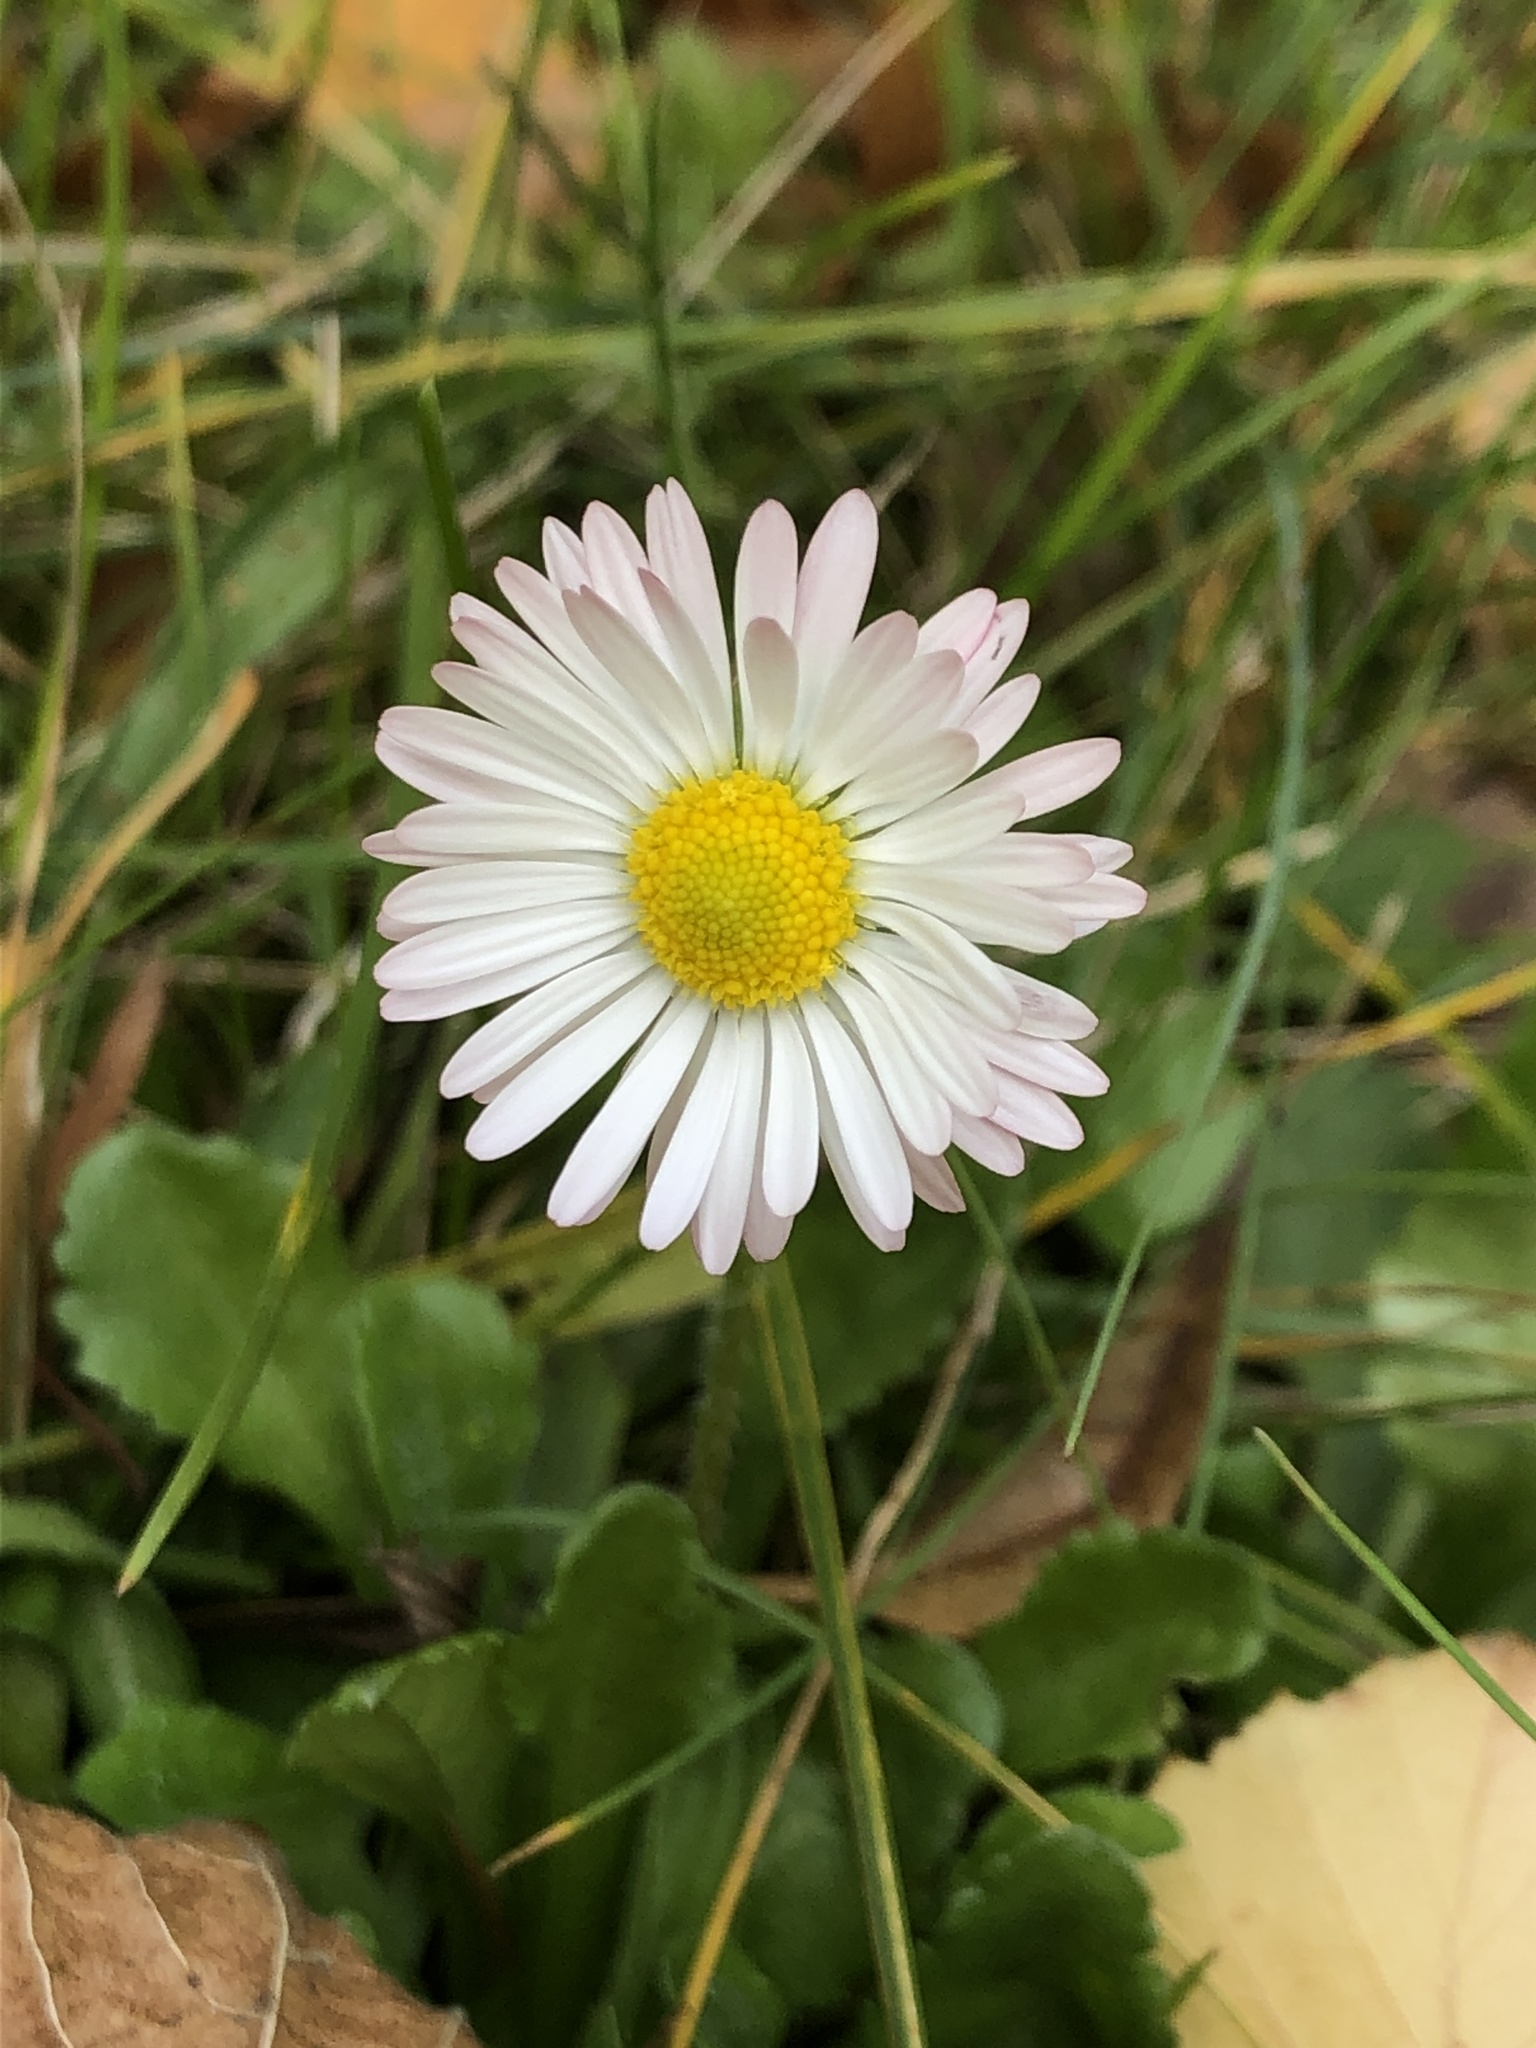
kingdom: Plantae
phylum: Tracheophyta
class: Magnoliopsida
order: Asterales
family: Asteraceae
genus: Bellis
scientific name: Bellis perennis
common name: Lawndaisy
